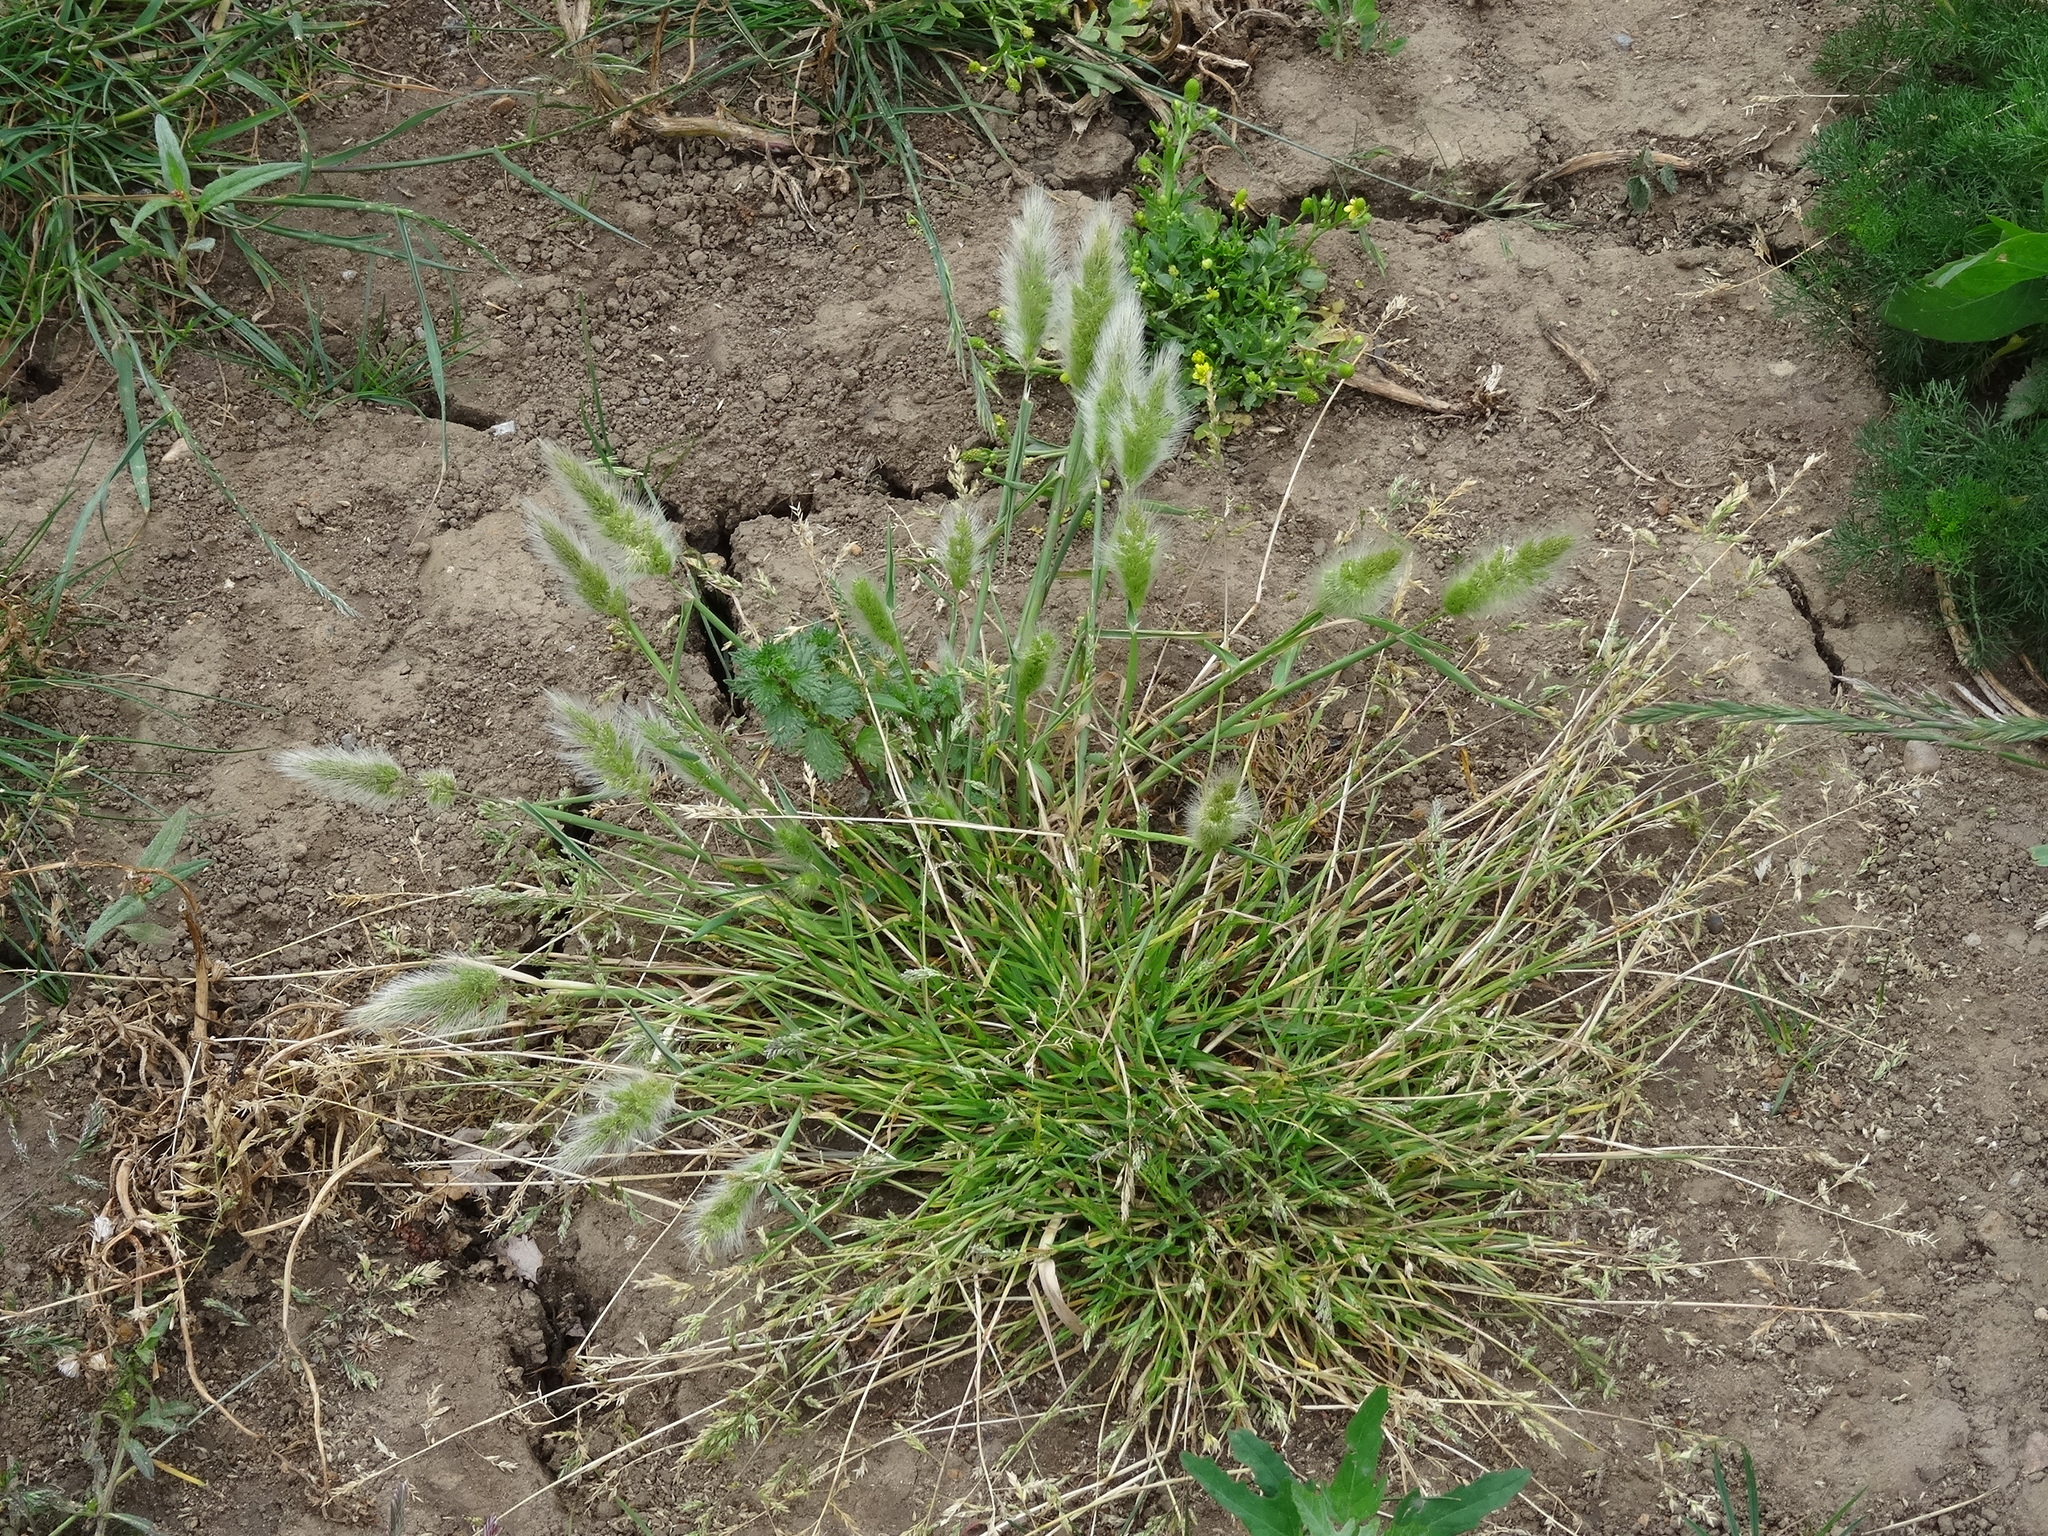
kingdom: Plantae
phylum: Tracheophyta
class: Liliopsida
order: Poales
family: Poaceae
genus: Polypogon
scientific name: Polypogon monspeliensis
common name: Annual rabbitsfoot grass
